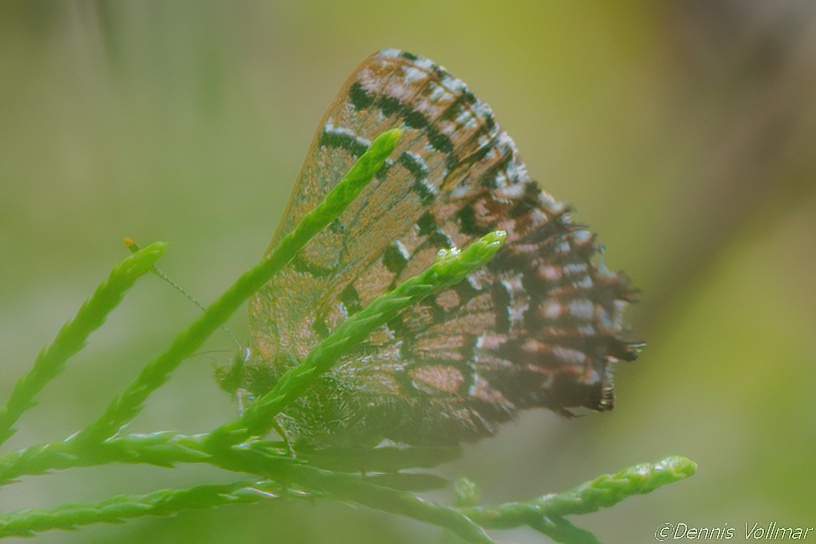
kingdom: Animalia
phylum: Arthropoda
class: Insecta
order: Lepidoptera
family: Lycaenidae
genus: Incisalia
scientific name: Incisalia niphon
